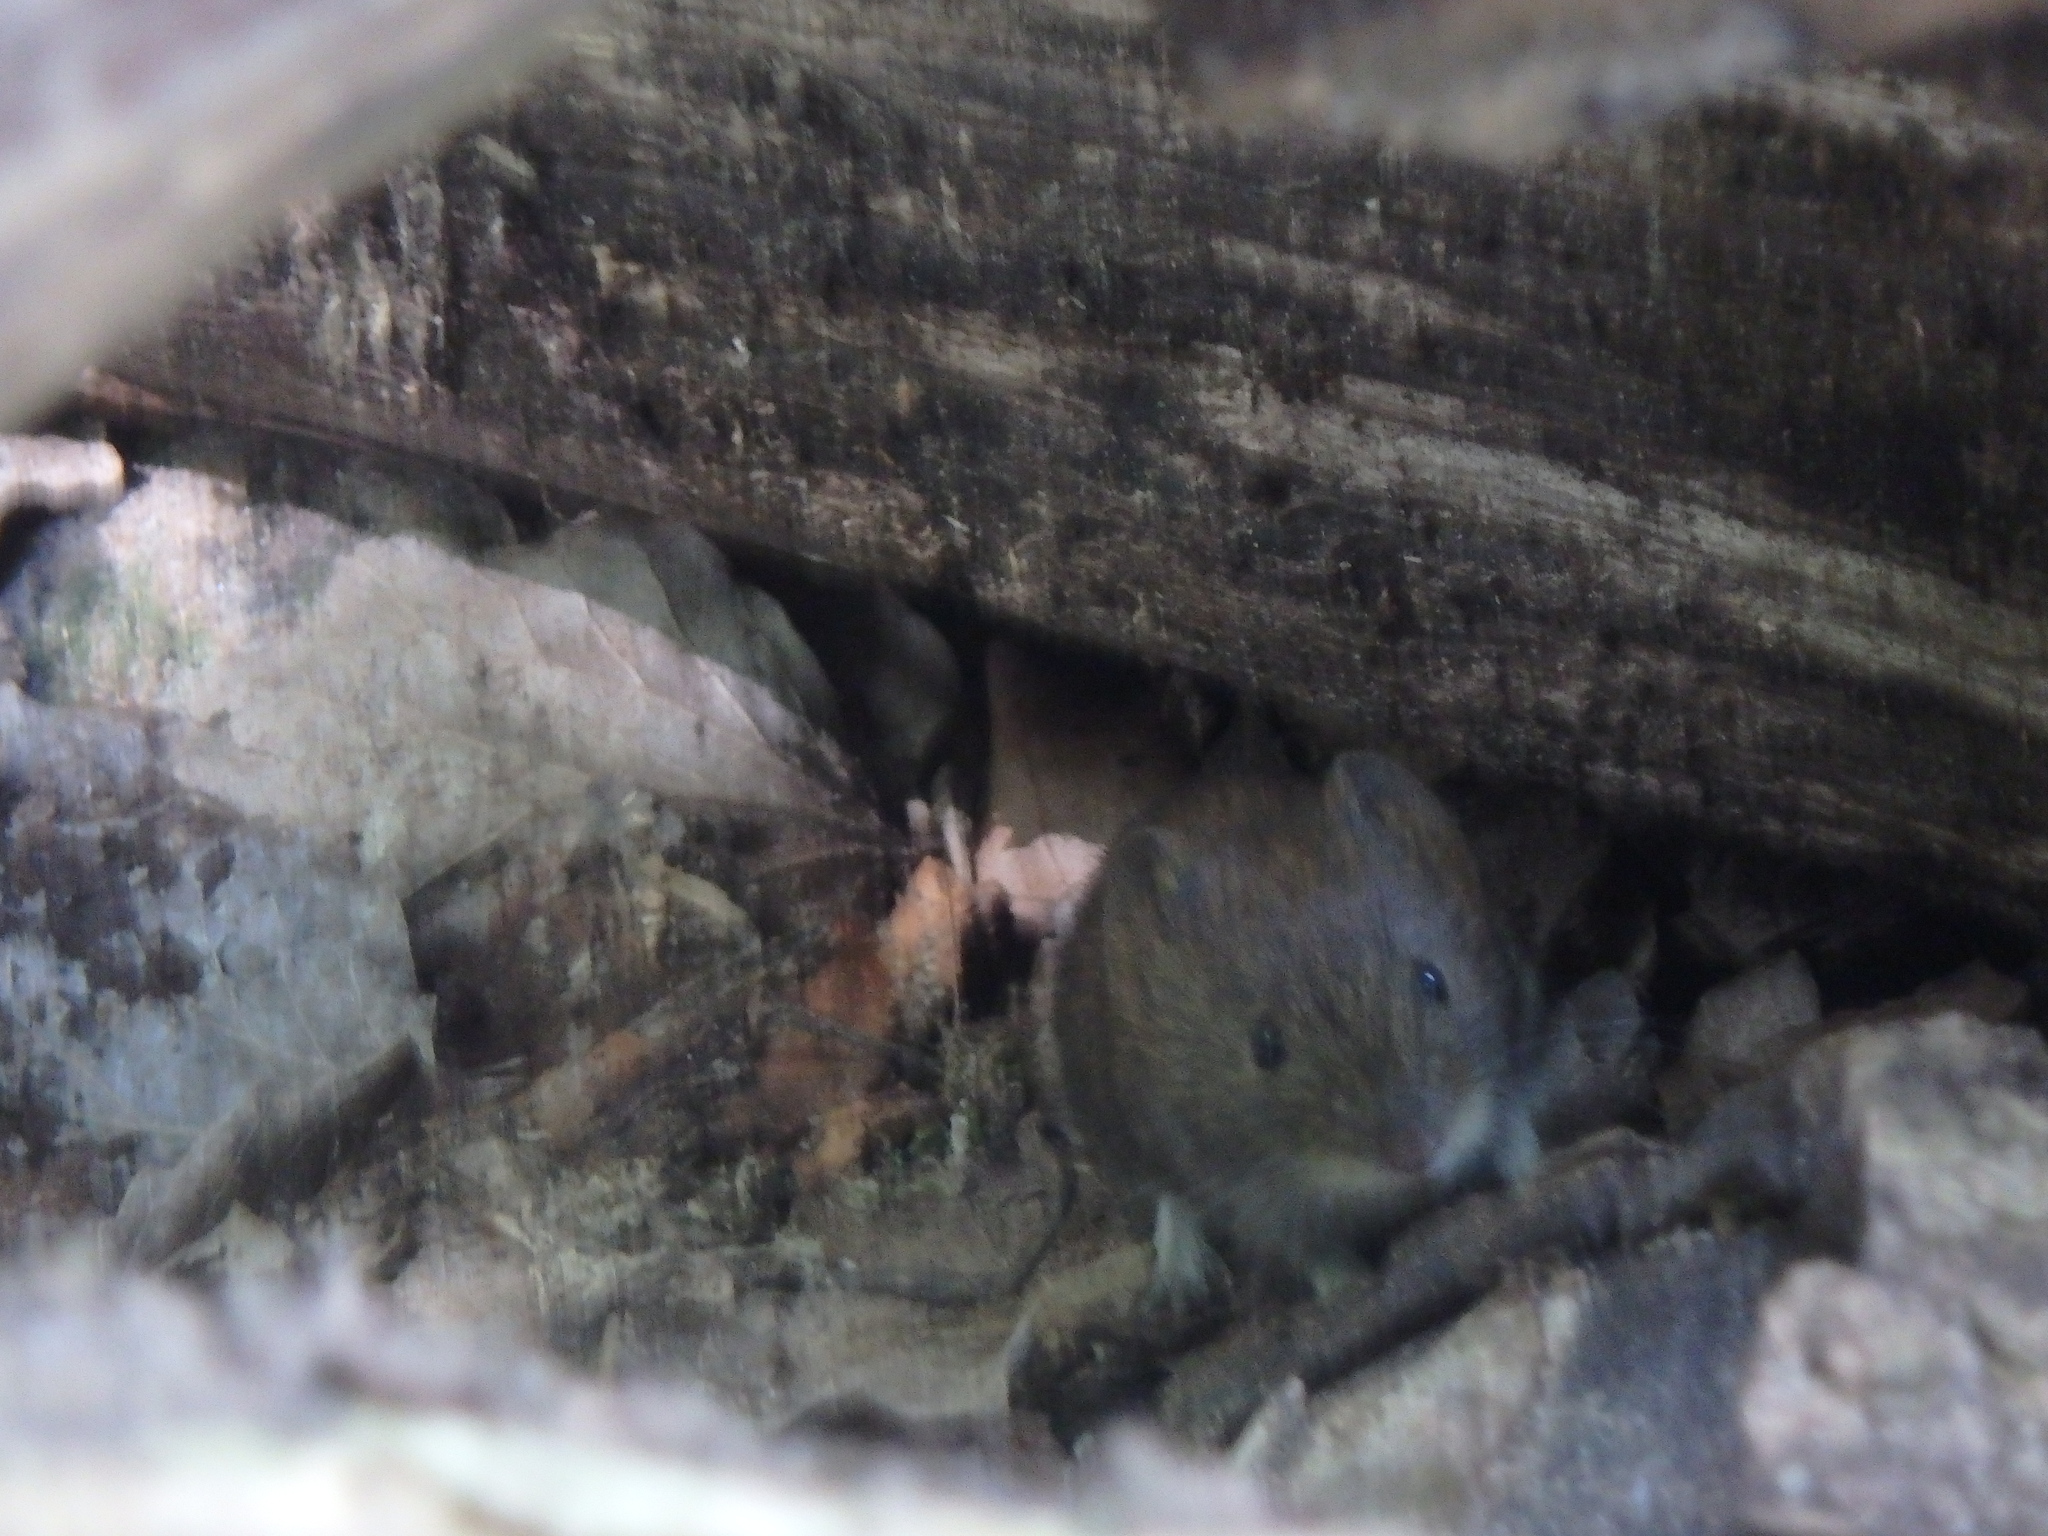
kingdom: Animalia
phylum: Chordata
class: Mammalia
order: Rodentia
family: Cricetidae
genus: Myodes
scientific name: Myodes glareolus
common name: Bank vole
